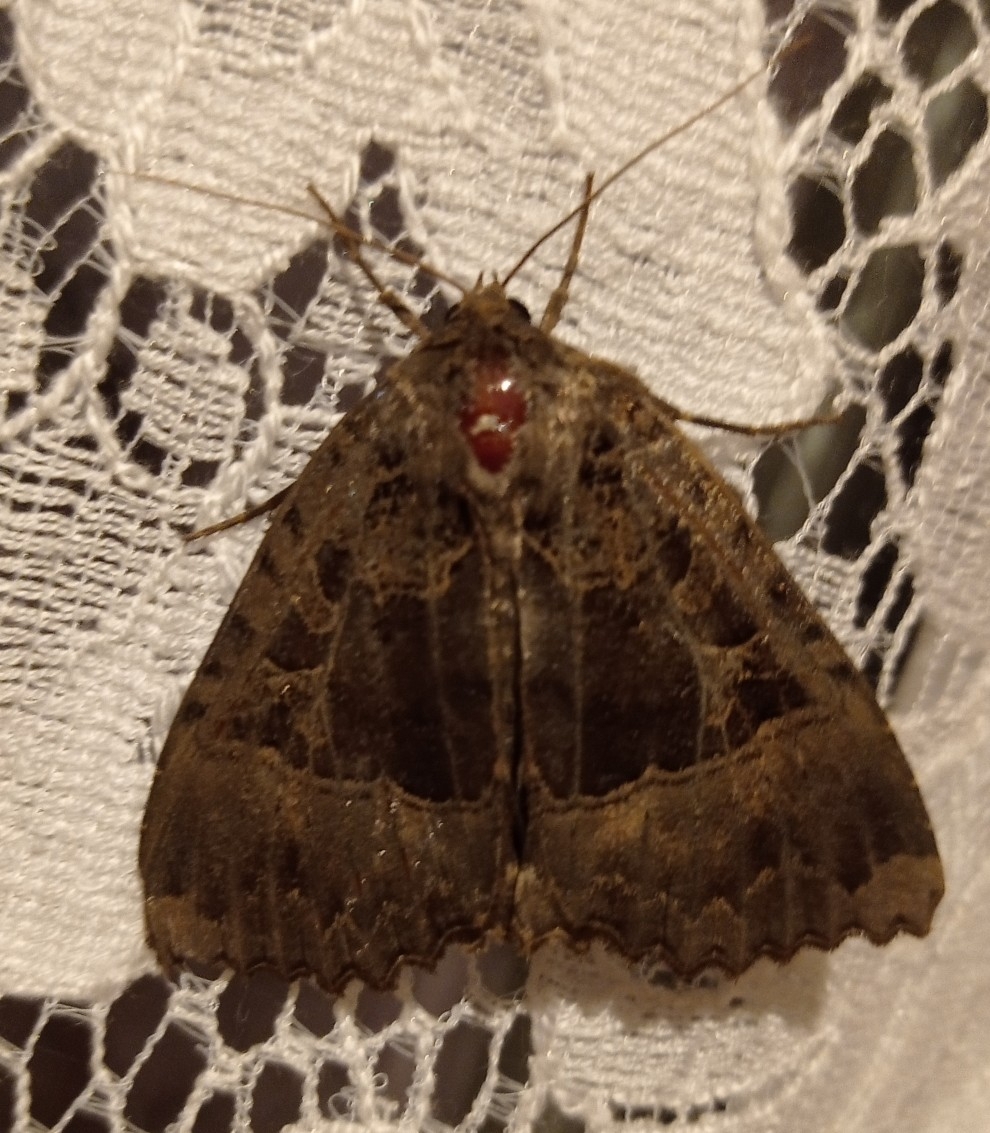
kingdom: Animalia
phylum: Arthropoda
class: Insecta
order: Lepidoptera
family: Noctuidae
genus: Mormo
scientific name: Mormo maura
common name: Old lady
